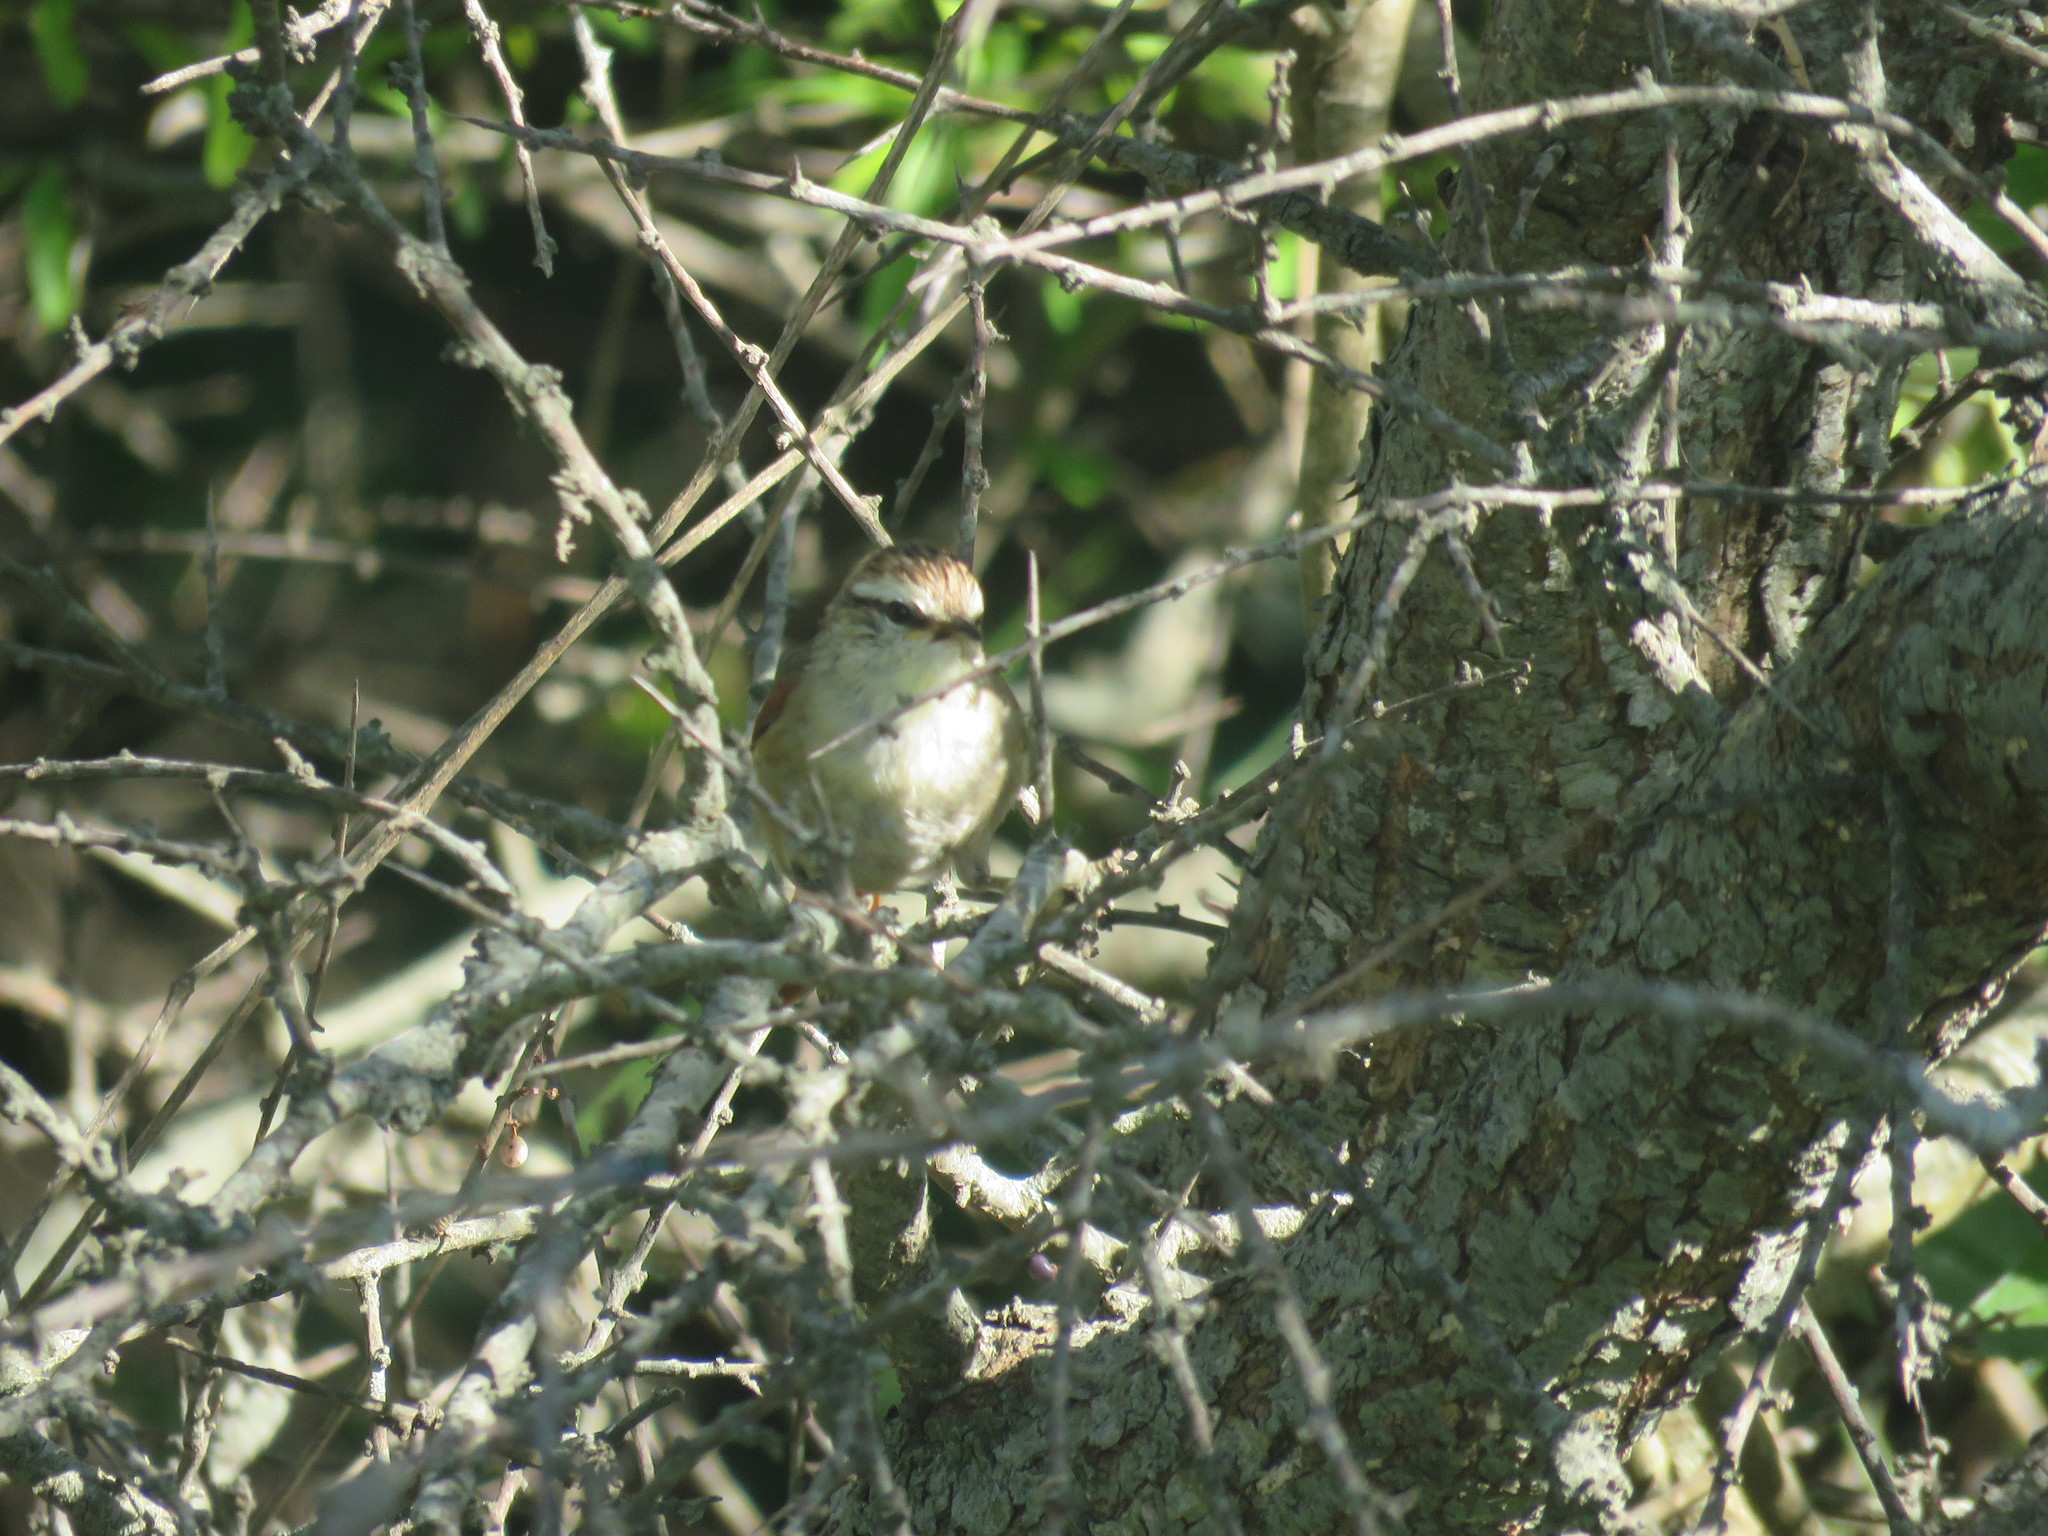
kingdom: Animalia
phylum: Chordata
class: Aves
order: Passeriformes
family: Furnariidae
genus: Cranioleuca
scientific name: Cranioleuca pyrrhophia
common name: Stripe-crowned spinetail
